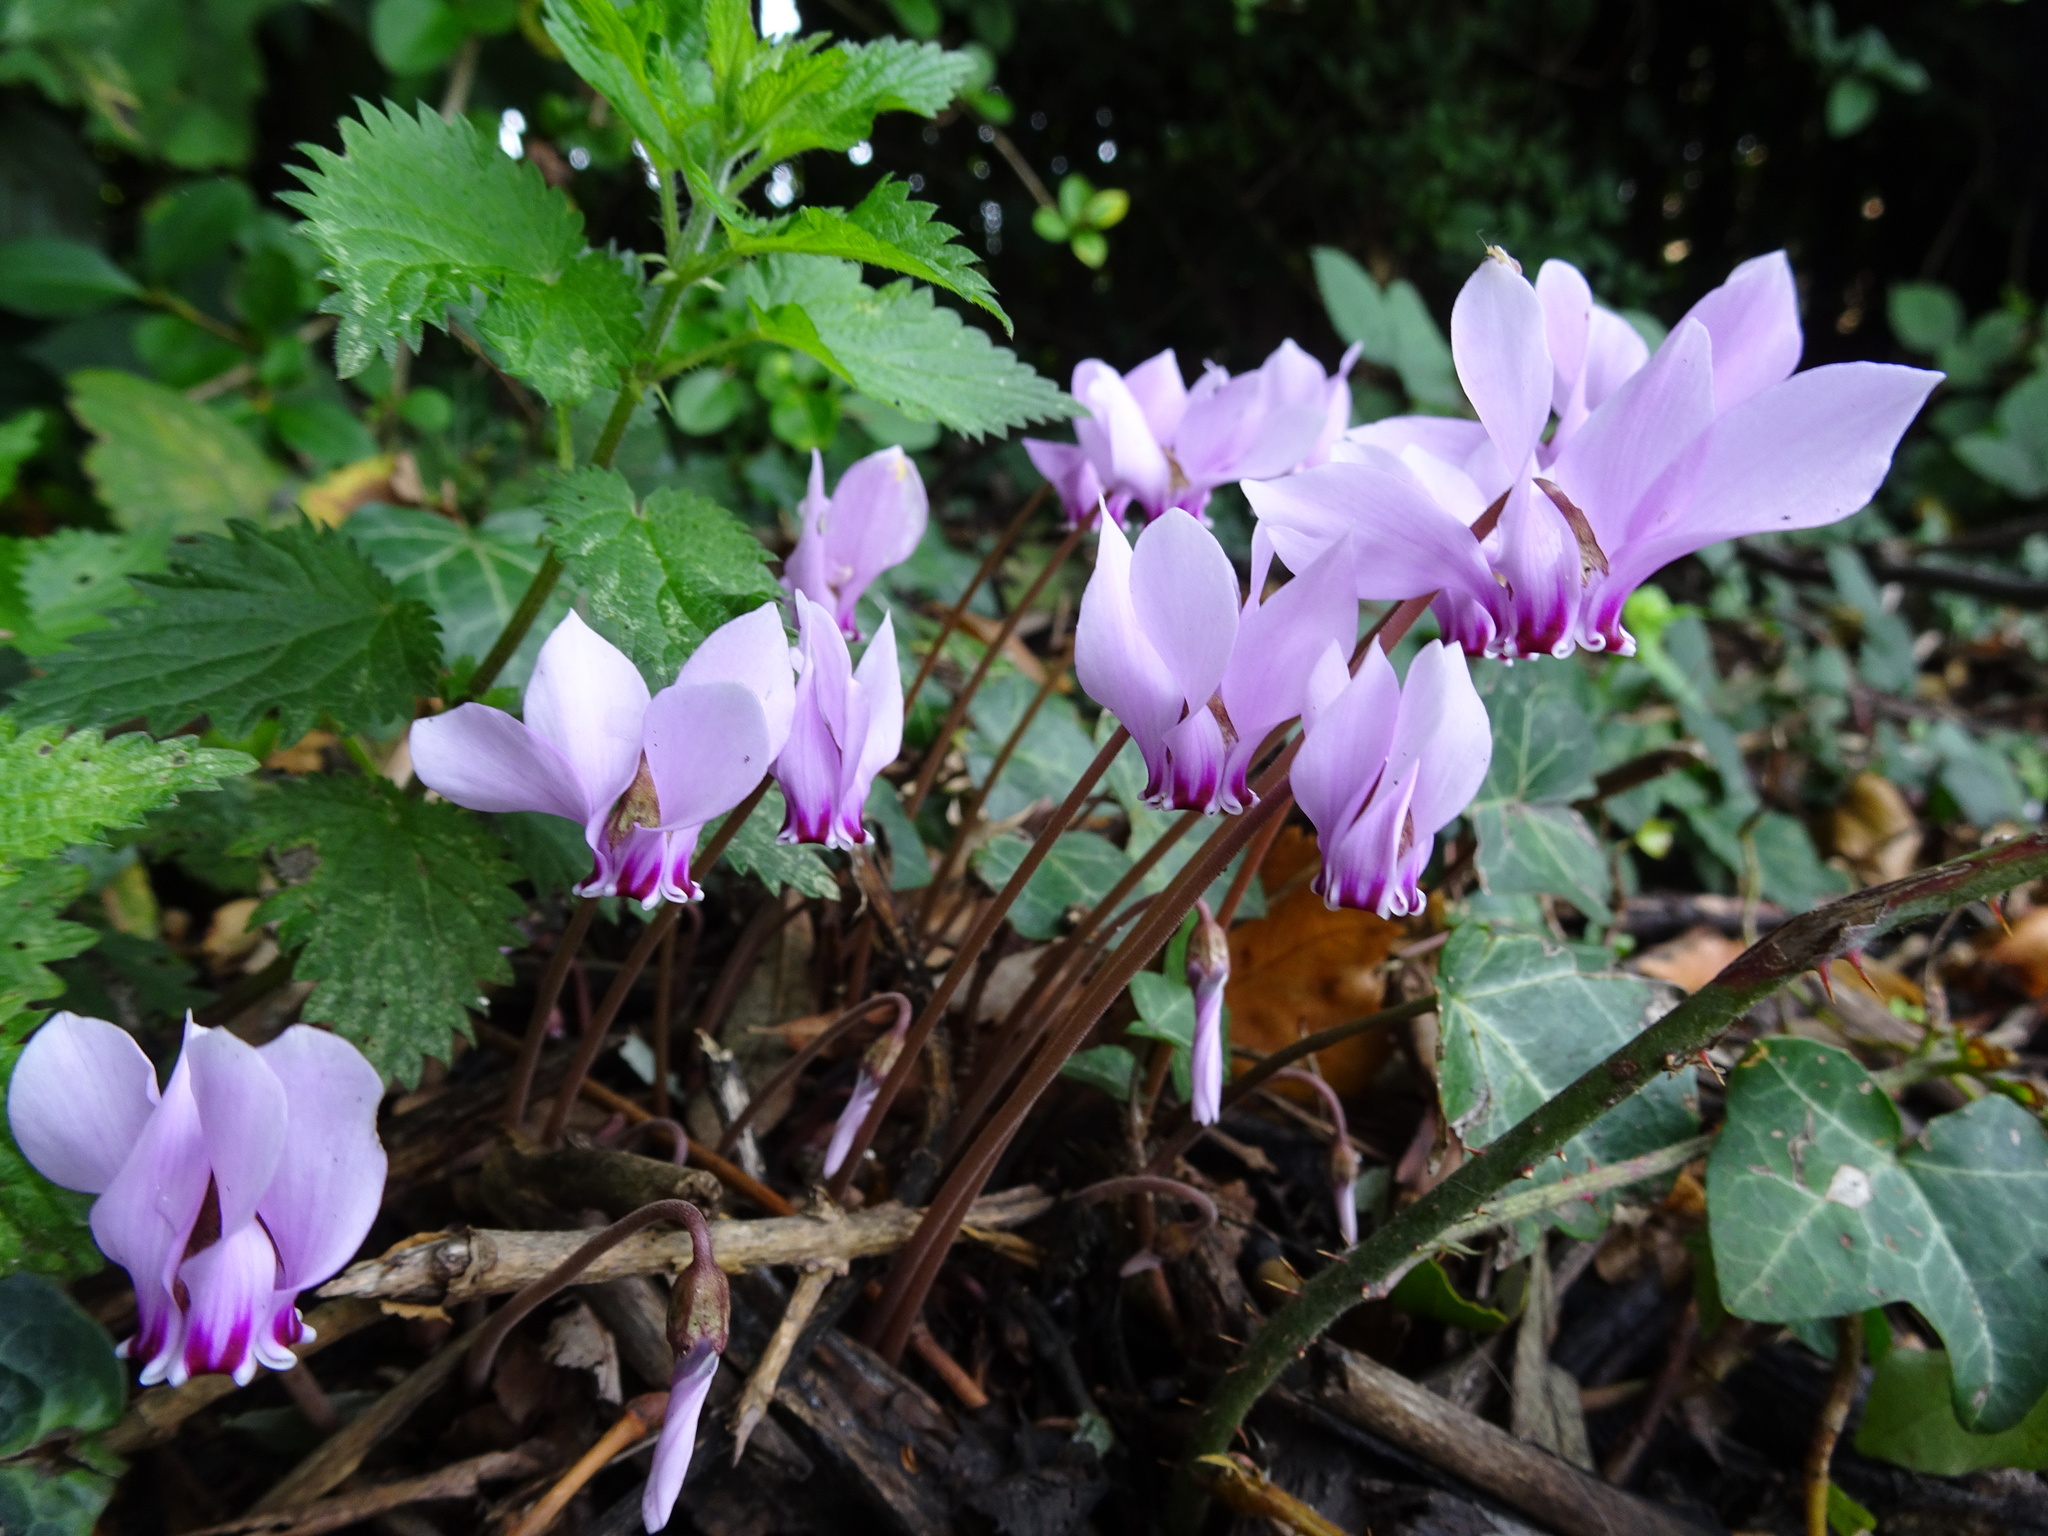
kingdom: Plantae
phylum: Tracheophyta
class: Magnoliopsida
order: Ericales
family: Primulaceae
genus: Cyclamen
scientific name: Cyclamen hederifolium
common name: Sowbread
